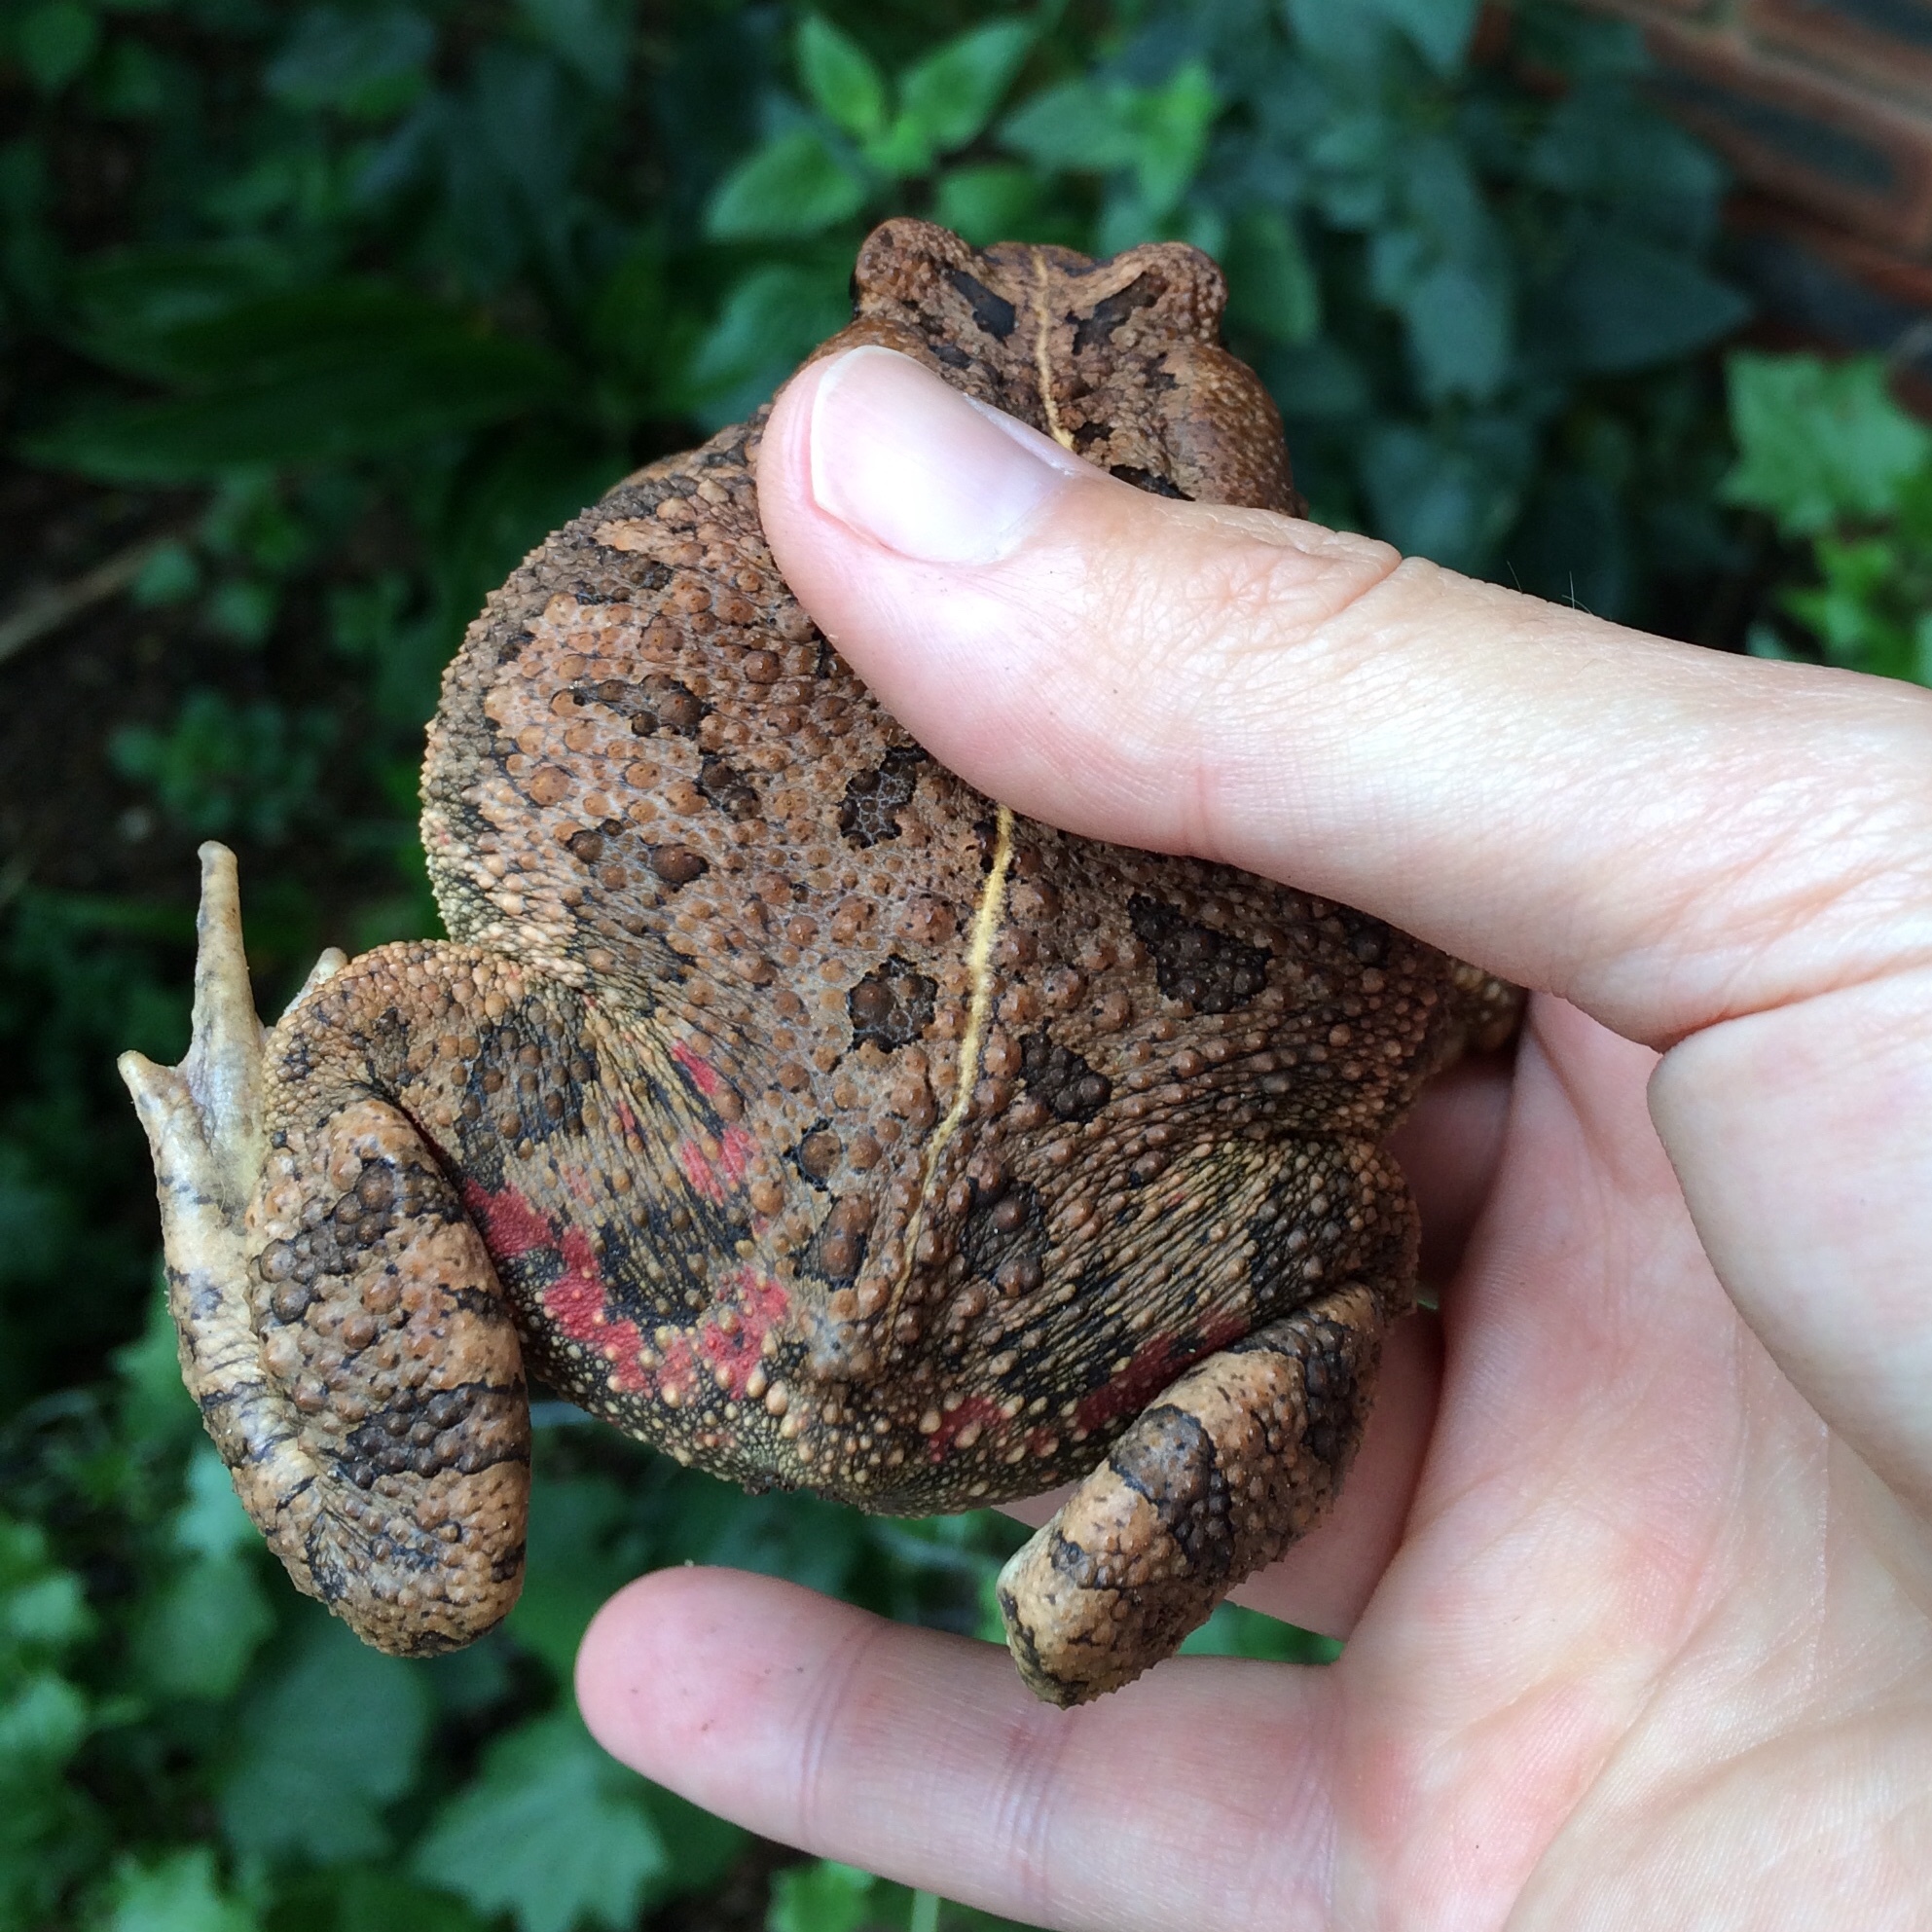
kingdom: Animalia
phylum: Chordata
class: Amphibia
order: Anura
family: Bufonidae
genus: Sclerophrys
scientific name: Sclerophrys gutturalis
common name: African common toad
